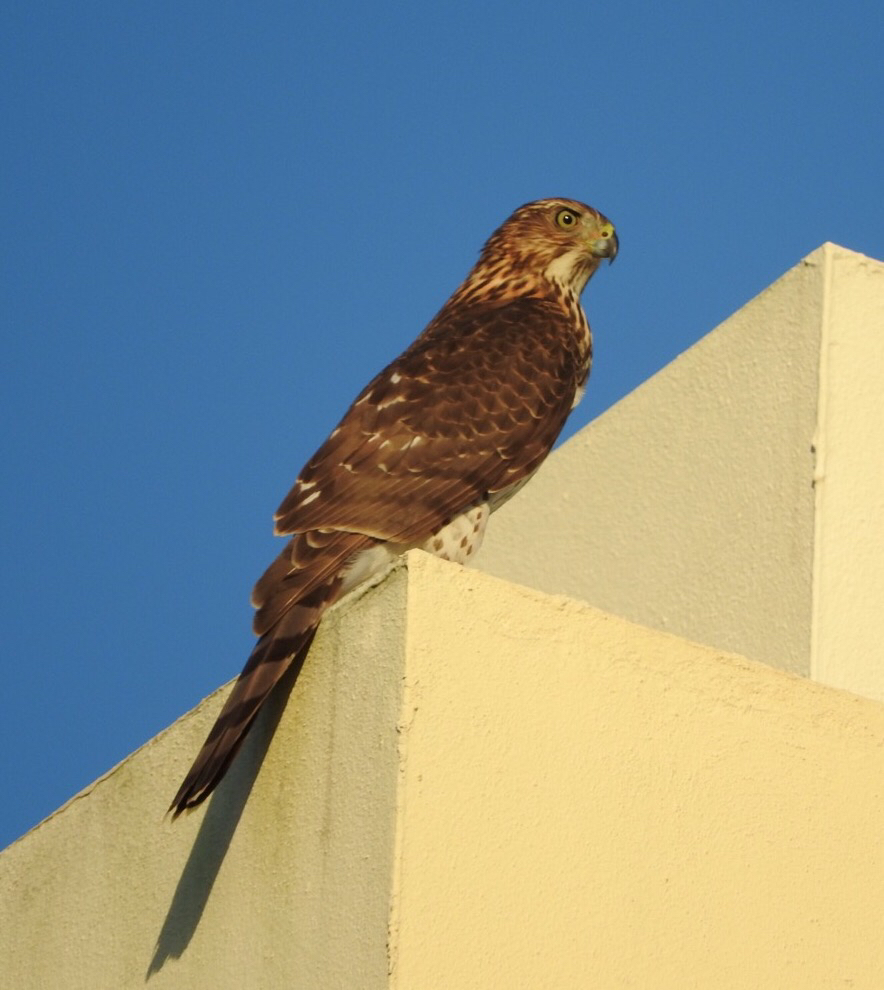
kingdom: Animalia
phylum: Chordata
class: Aves
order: Accipitriformes
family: Accipitridae
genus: Accipiter
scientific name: Accipiter cooperii
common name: Cooper's hawk
